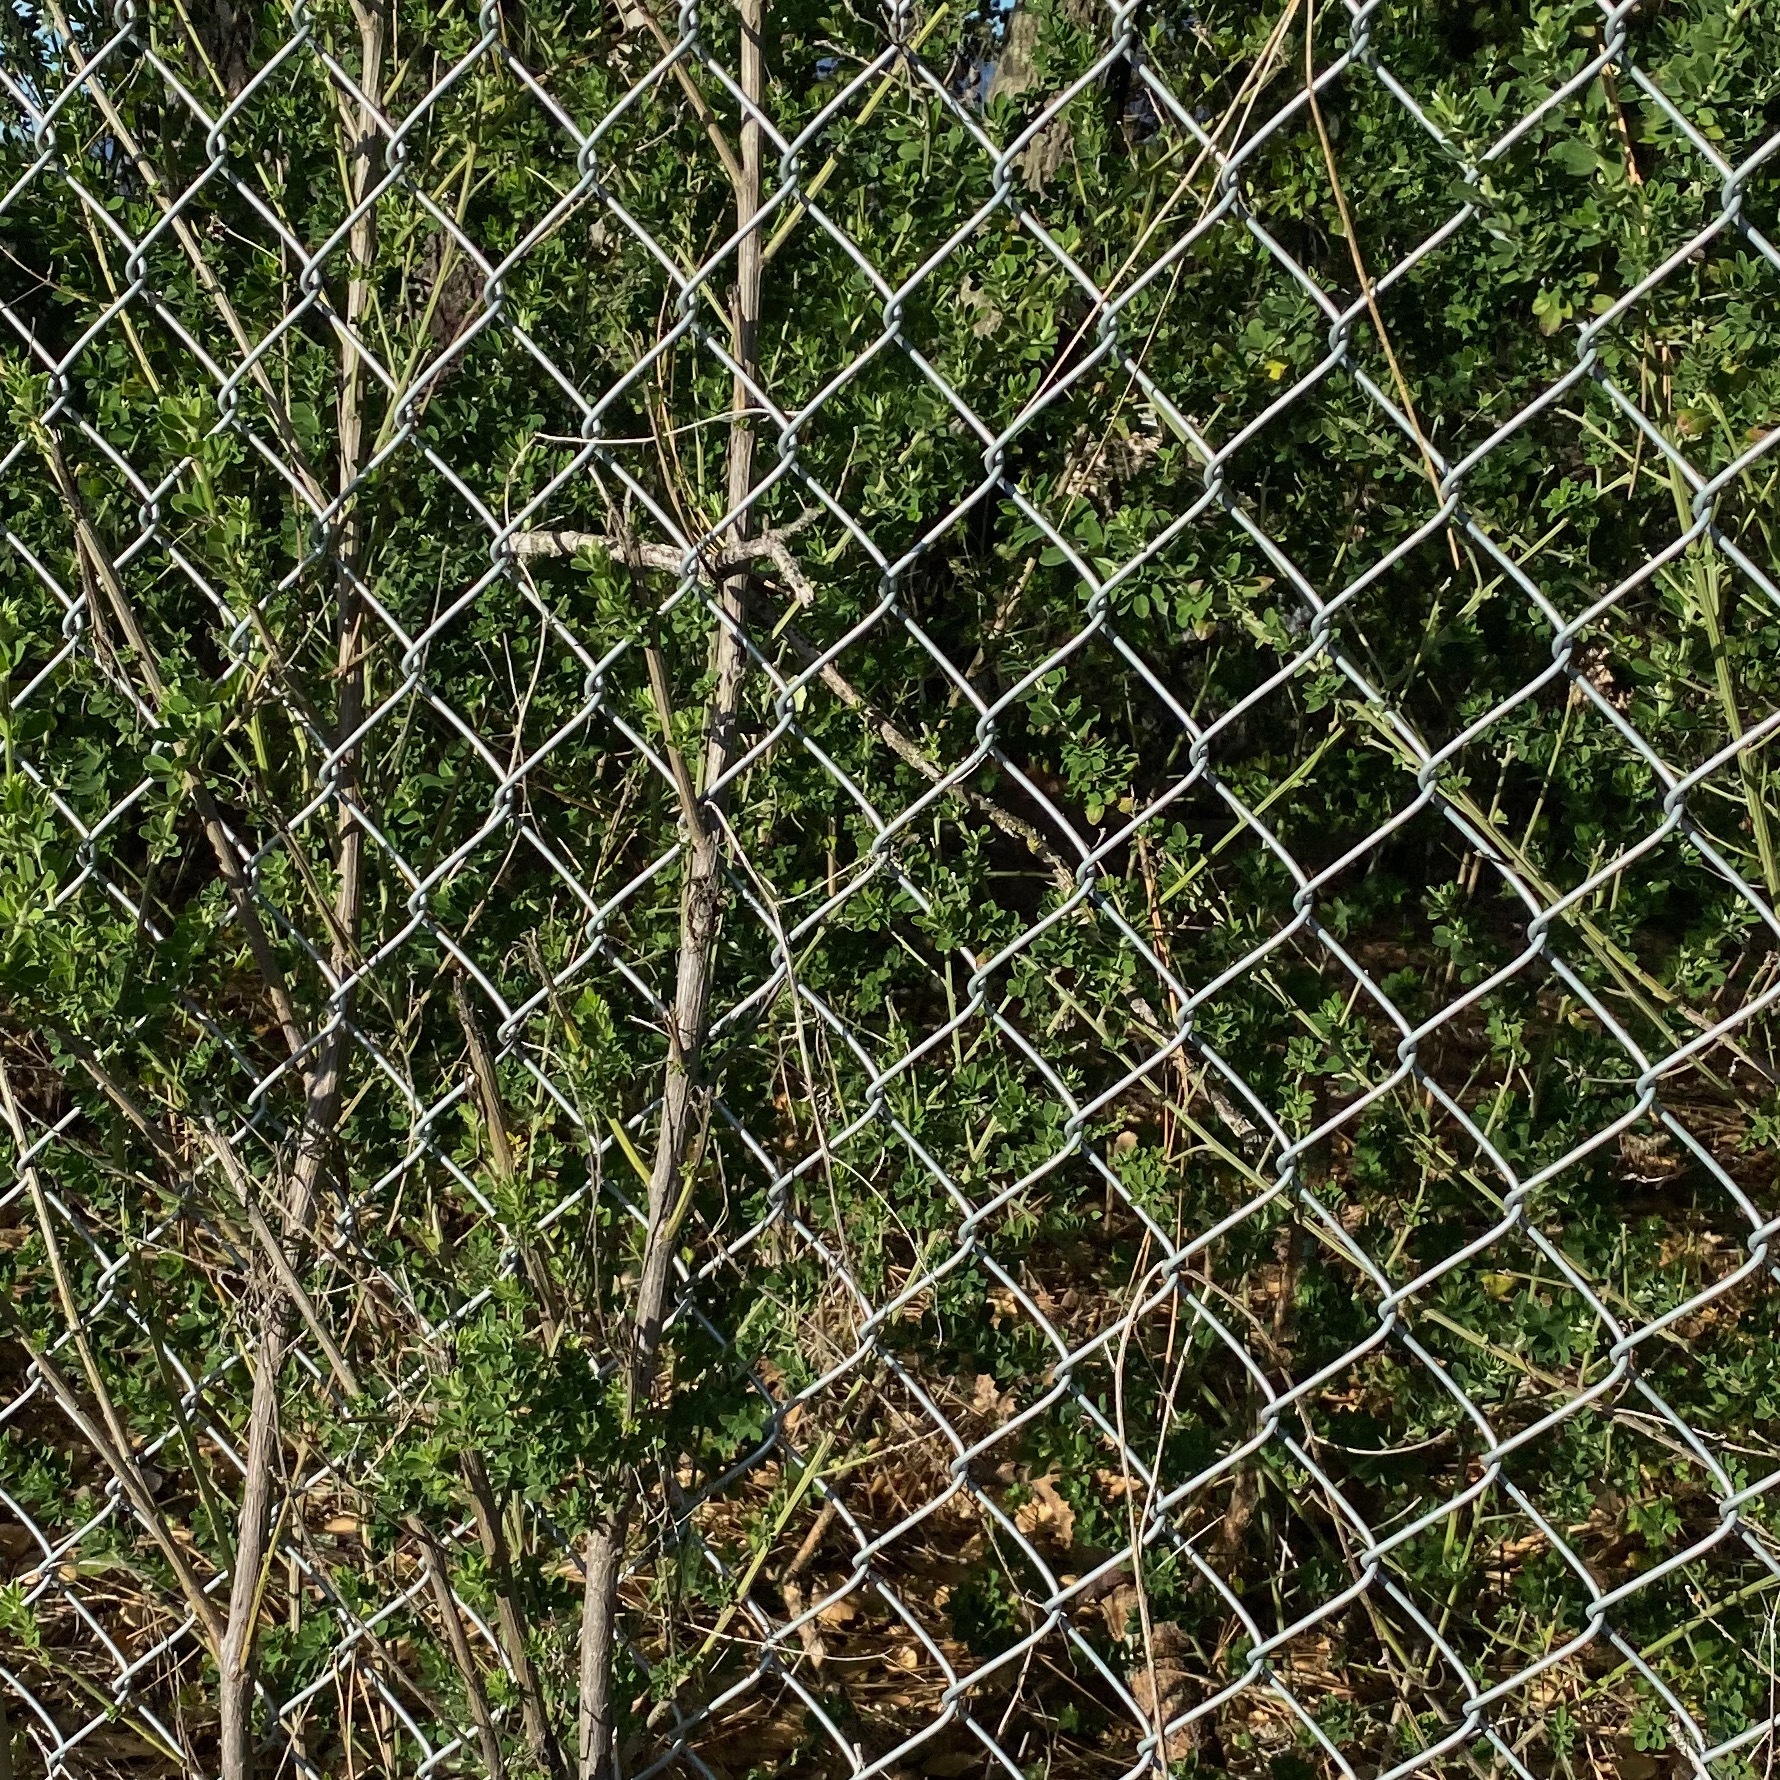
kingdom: Plantae
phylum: Tracheophyta
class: Magnoliopsida
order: Fabales
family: Fabaceae
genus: Genista
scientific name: Genista monspessulana
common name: Montpellier broom
